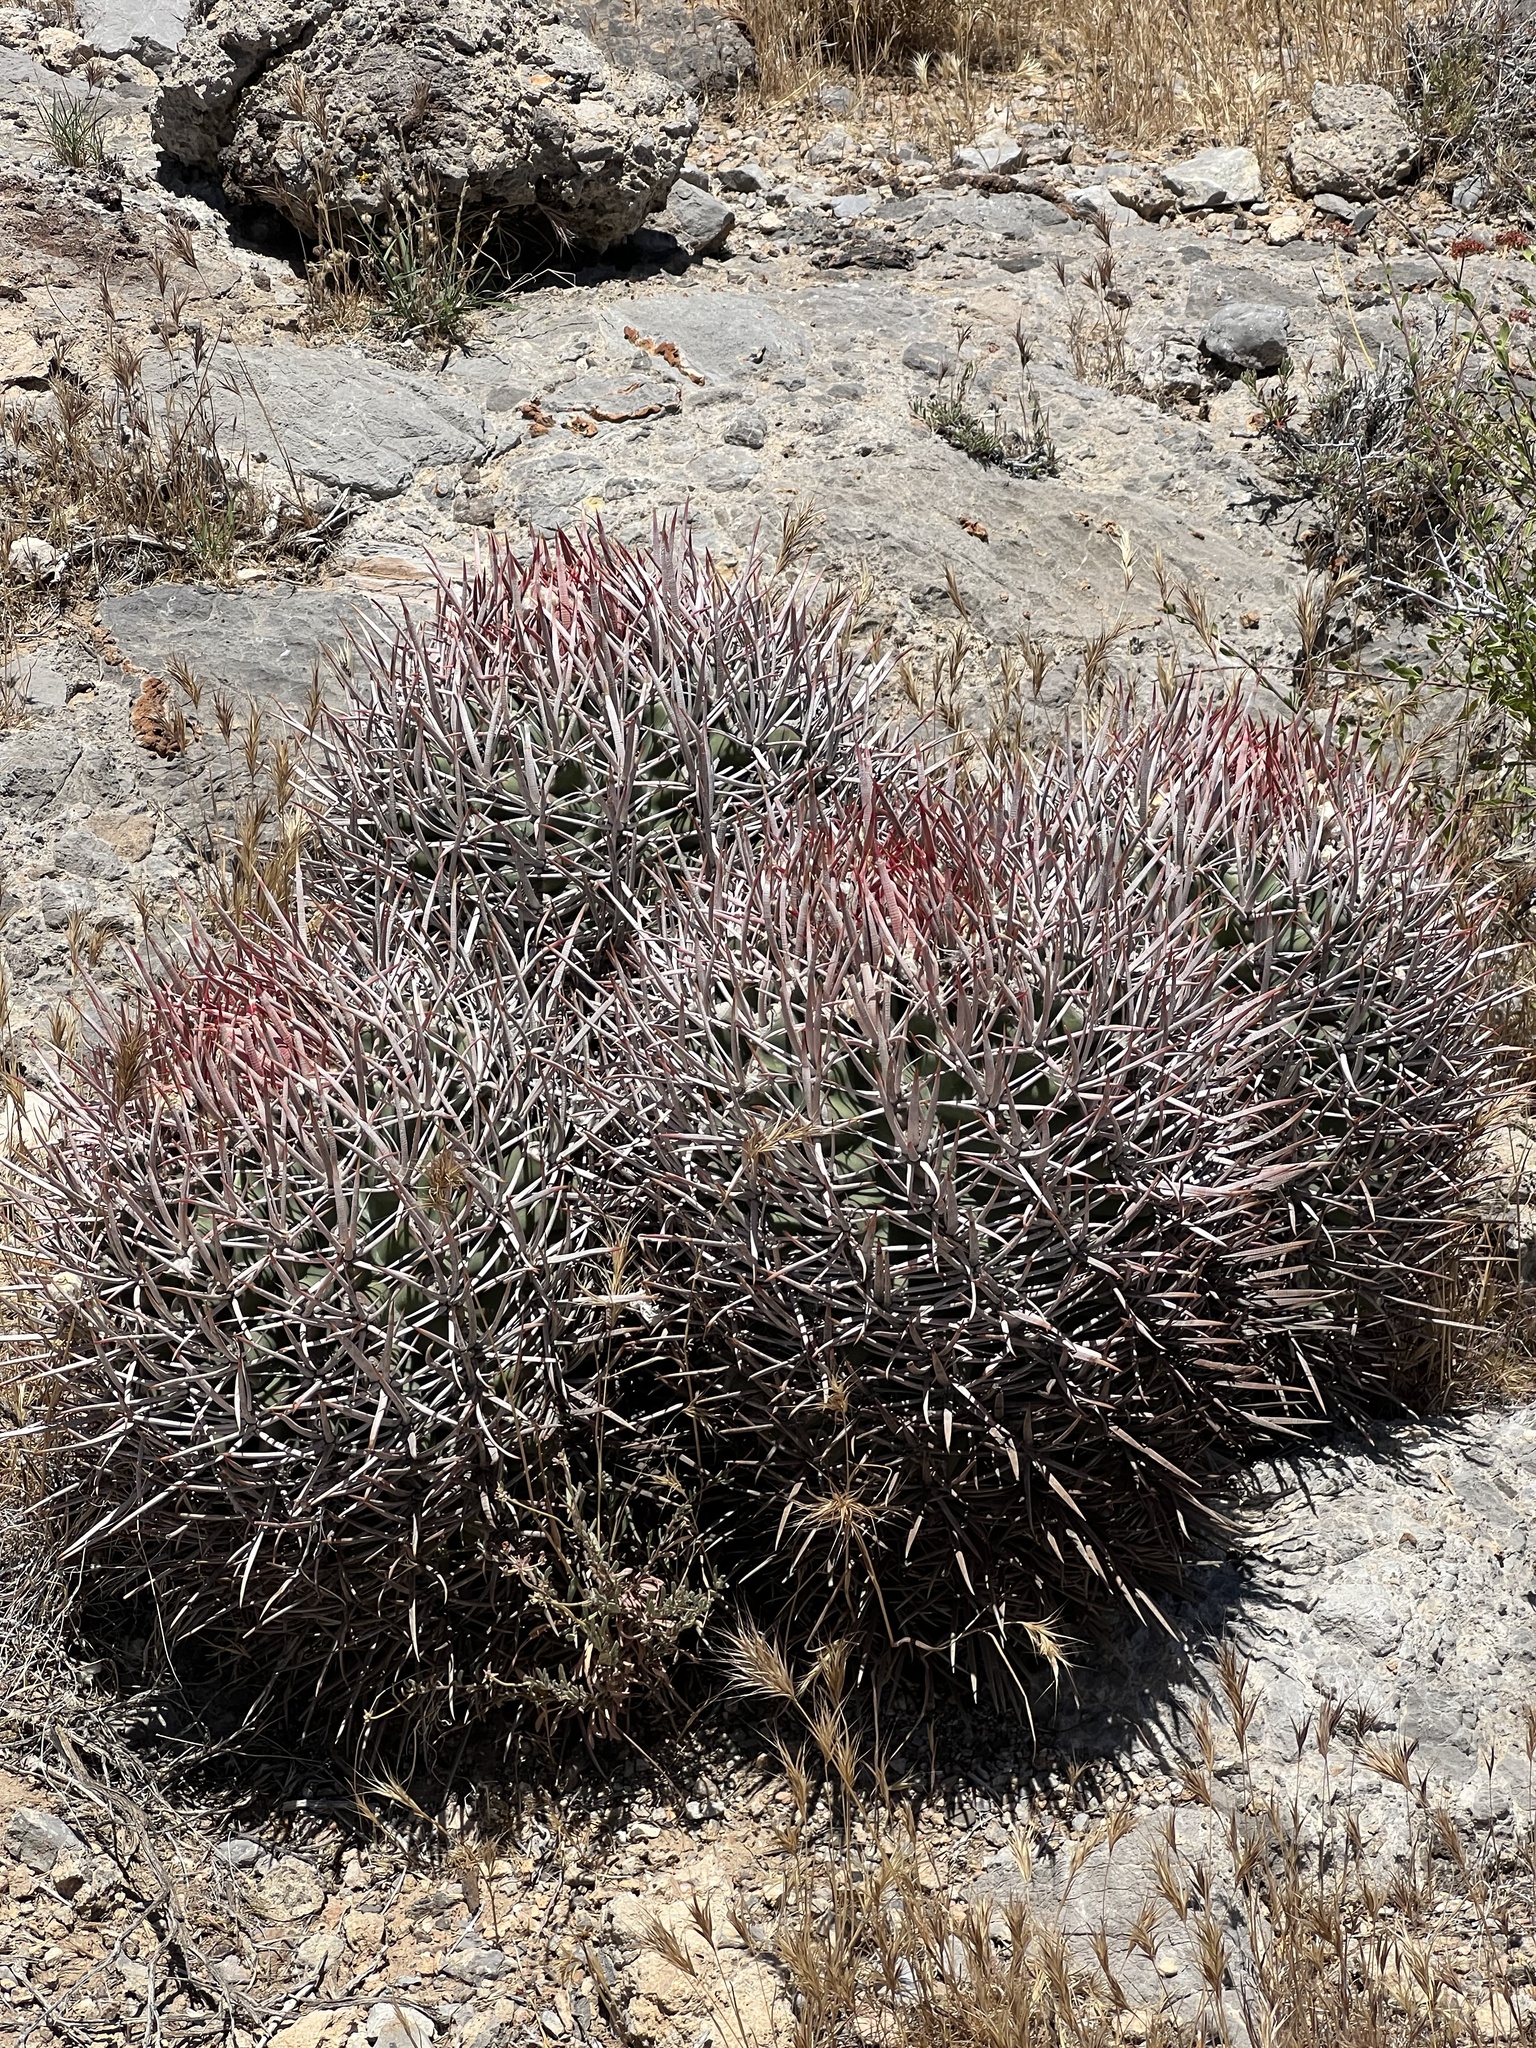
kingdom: Plantae
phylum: Tracheophyta
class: Magnoliopsida
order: Caryophyllales
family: Cactaceae
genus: Echinocactus
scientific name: Echinocactus polycephalus
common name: Cottontop cactus
